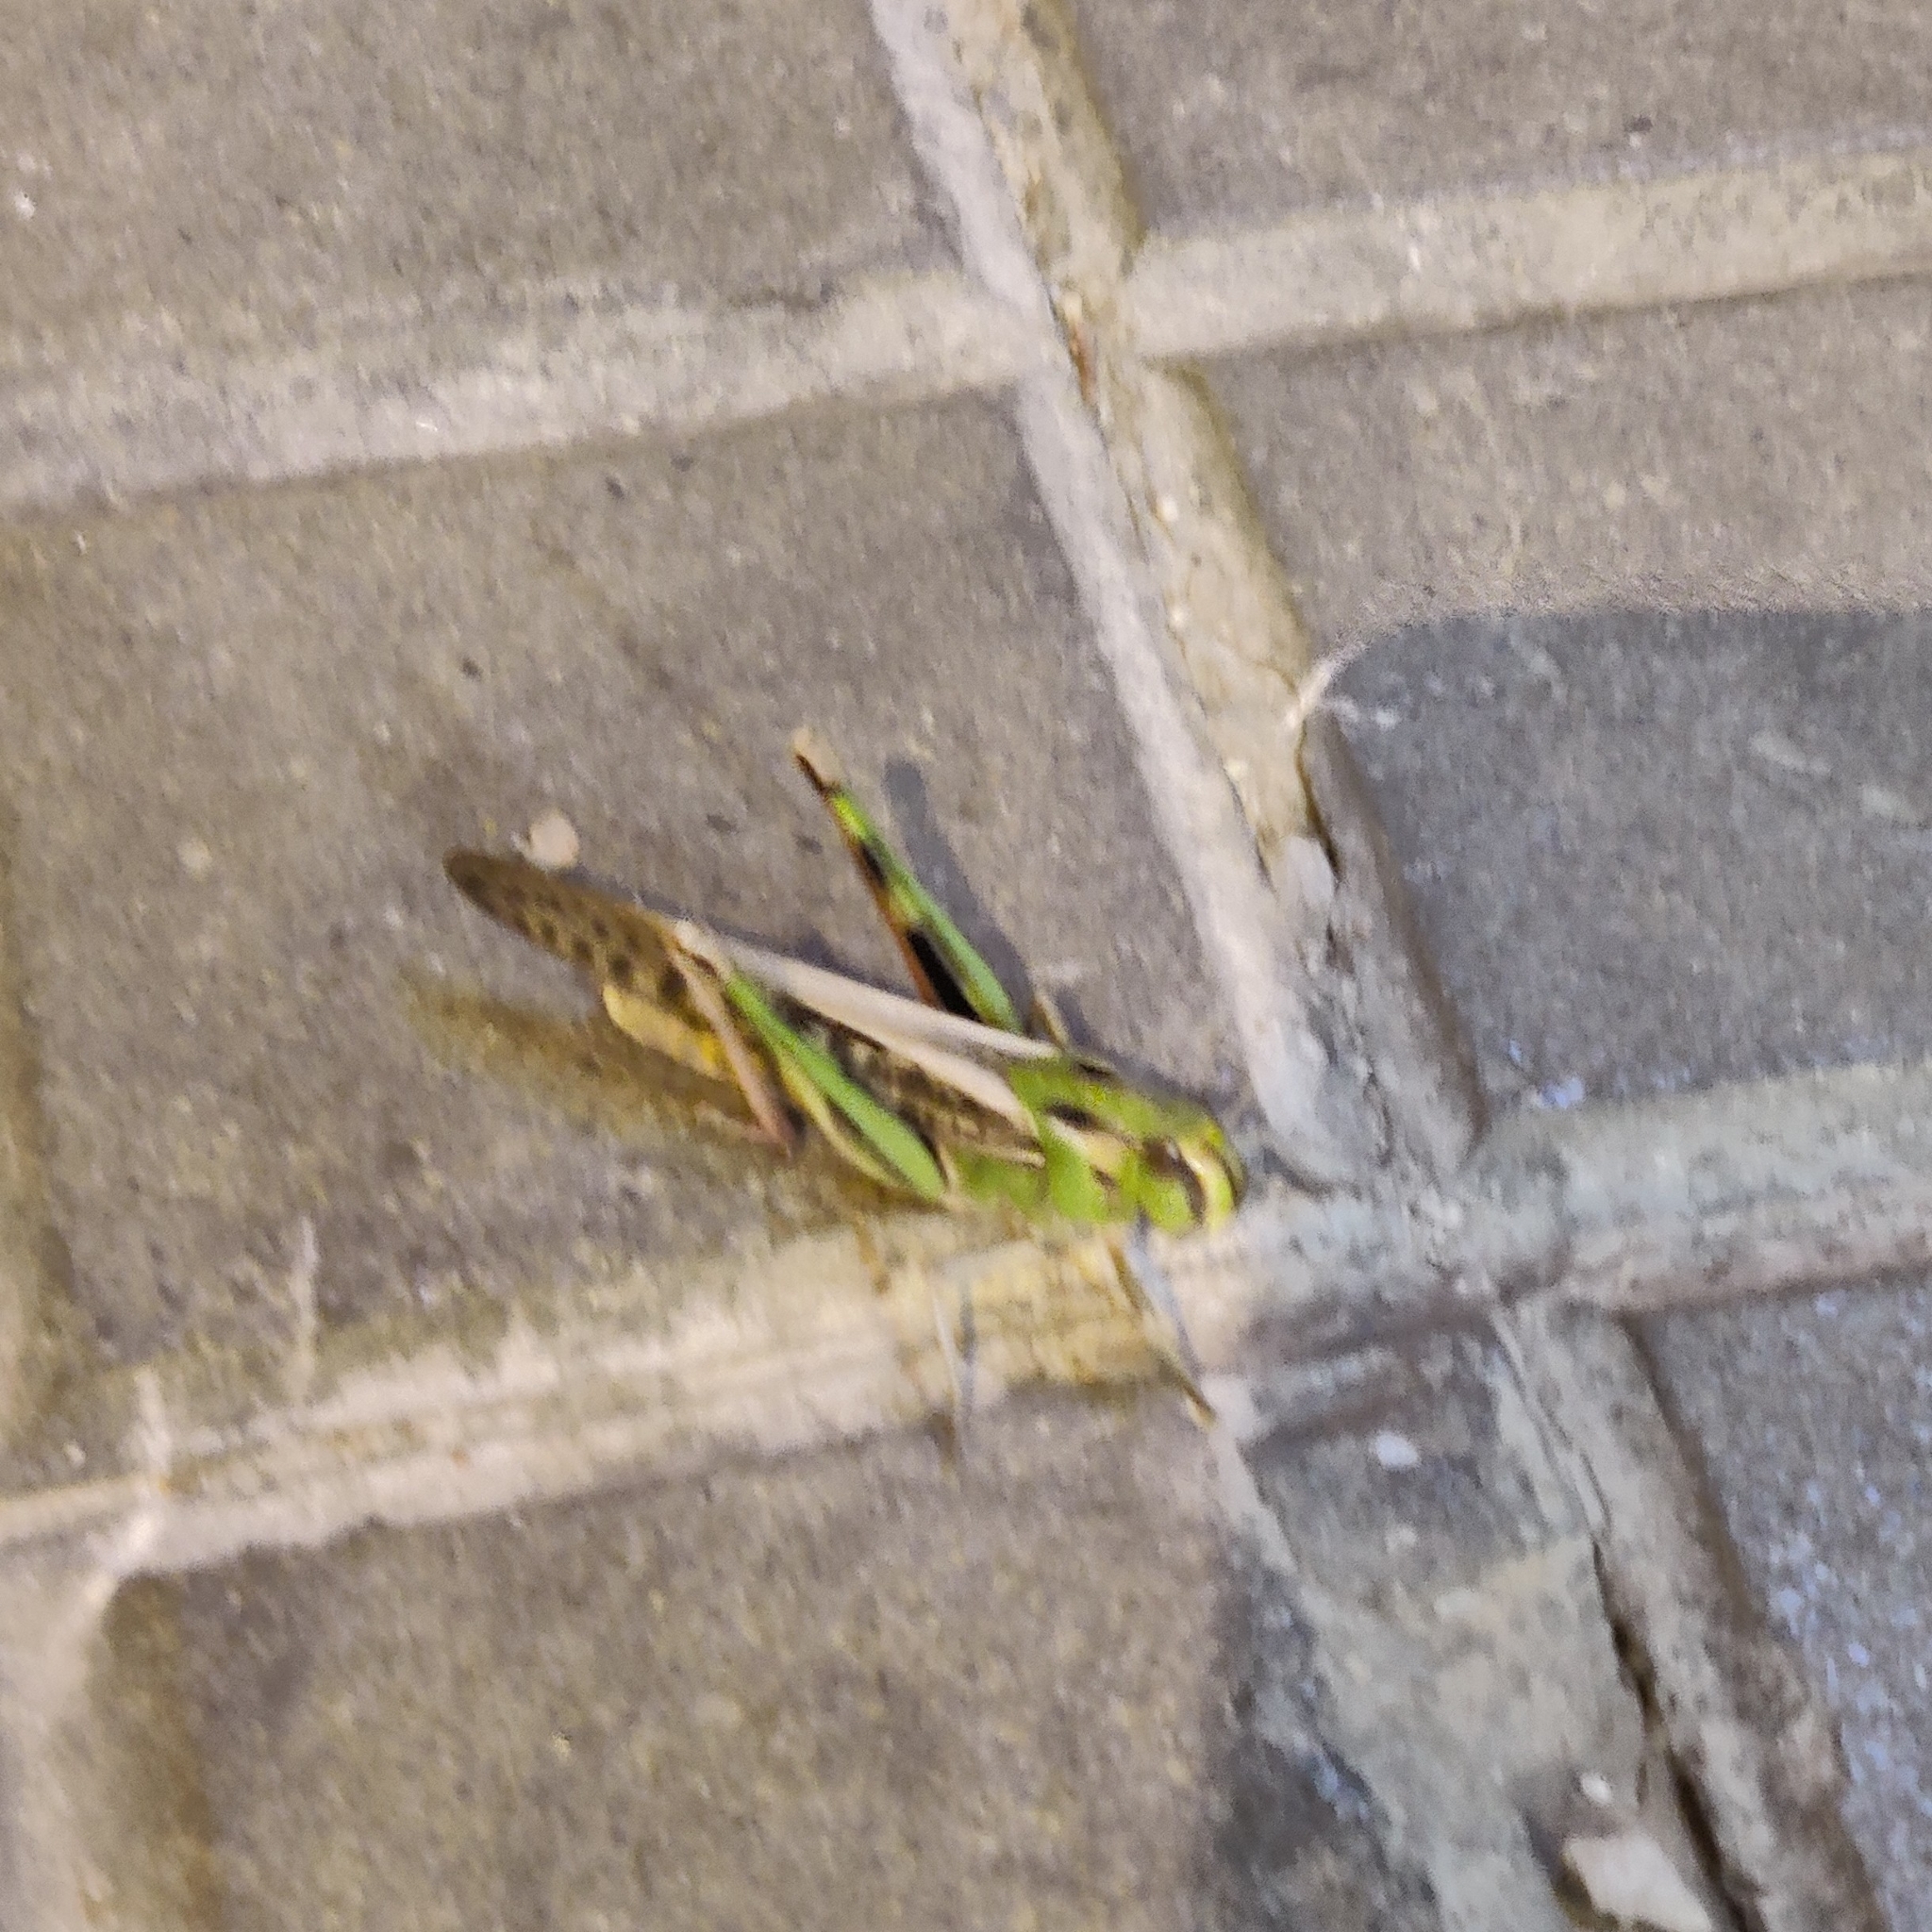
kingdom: Animalia
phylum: Arthropoda
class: Insecta
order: Orthoptera
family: Acrididae
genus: Locusta
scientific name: Locusta migratoria
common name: Migratory locust
